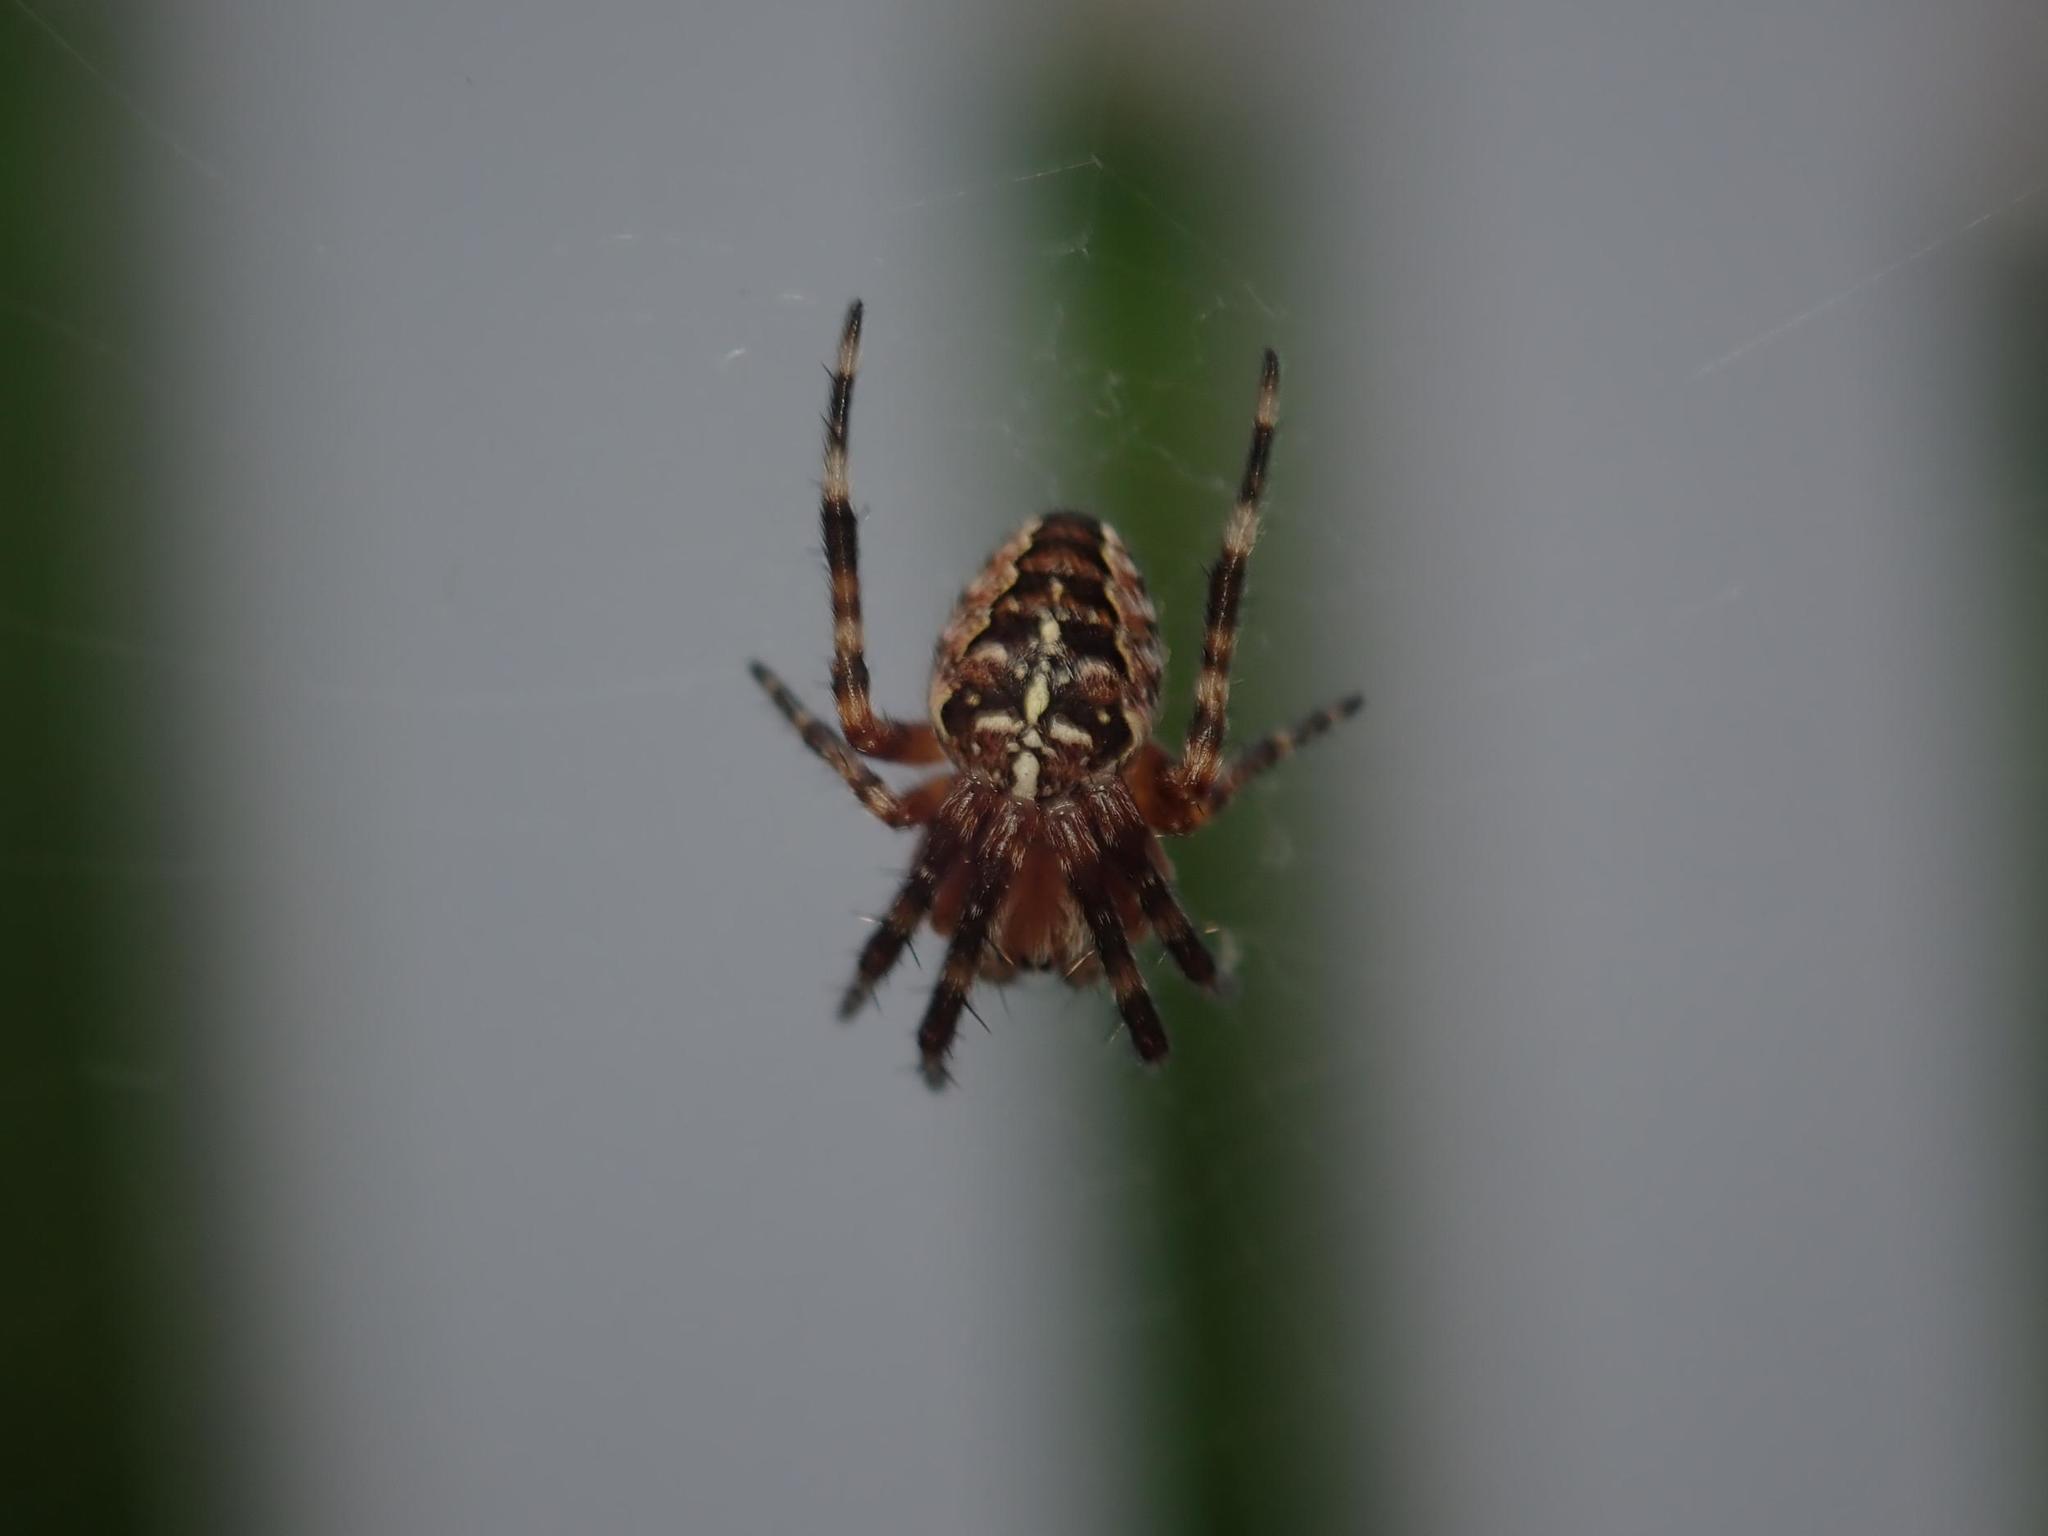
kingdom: Animalia
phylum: Arthropoda
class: Arachnida
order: Araneae
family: Araneidae
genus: Araneus
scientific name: Araneus diadematus
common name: Cross orbweaver
